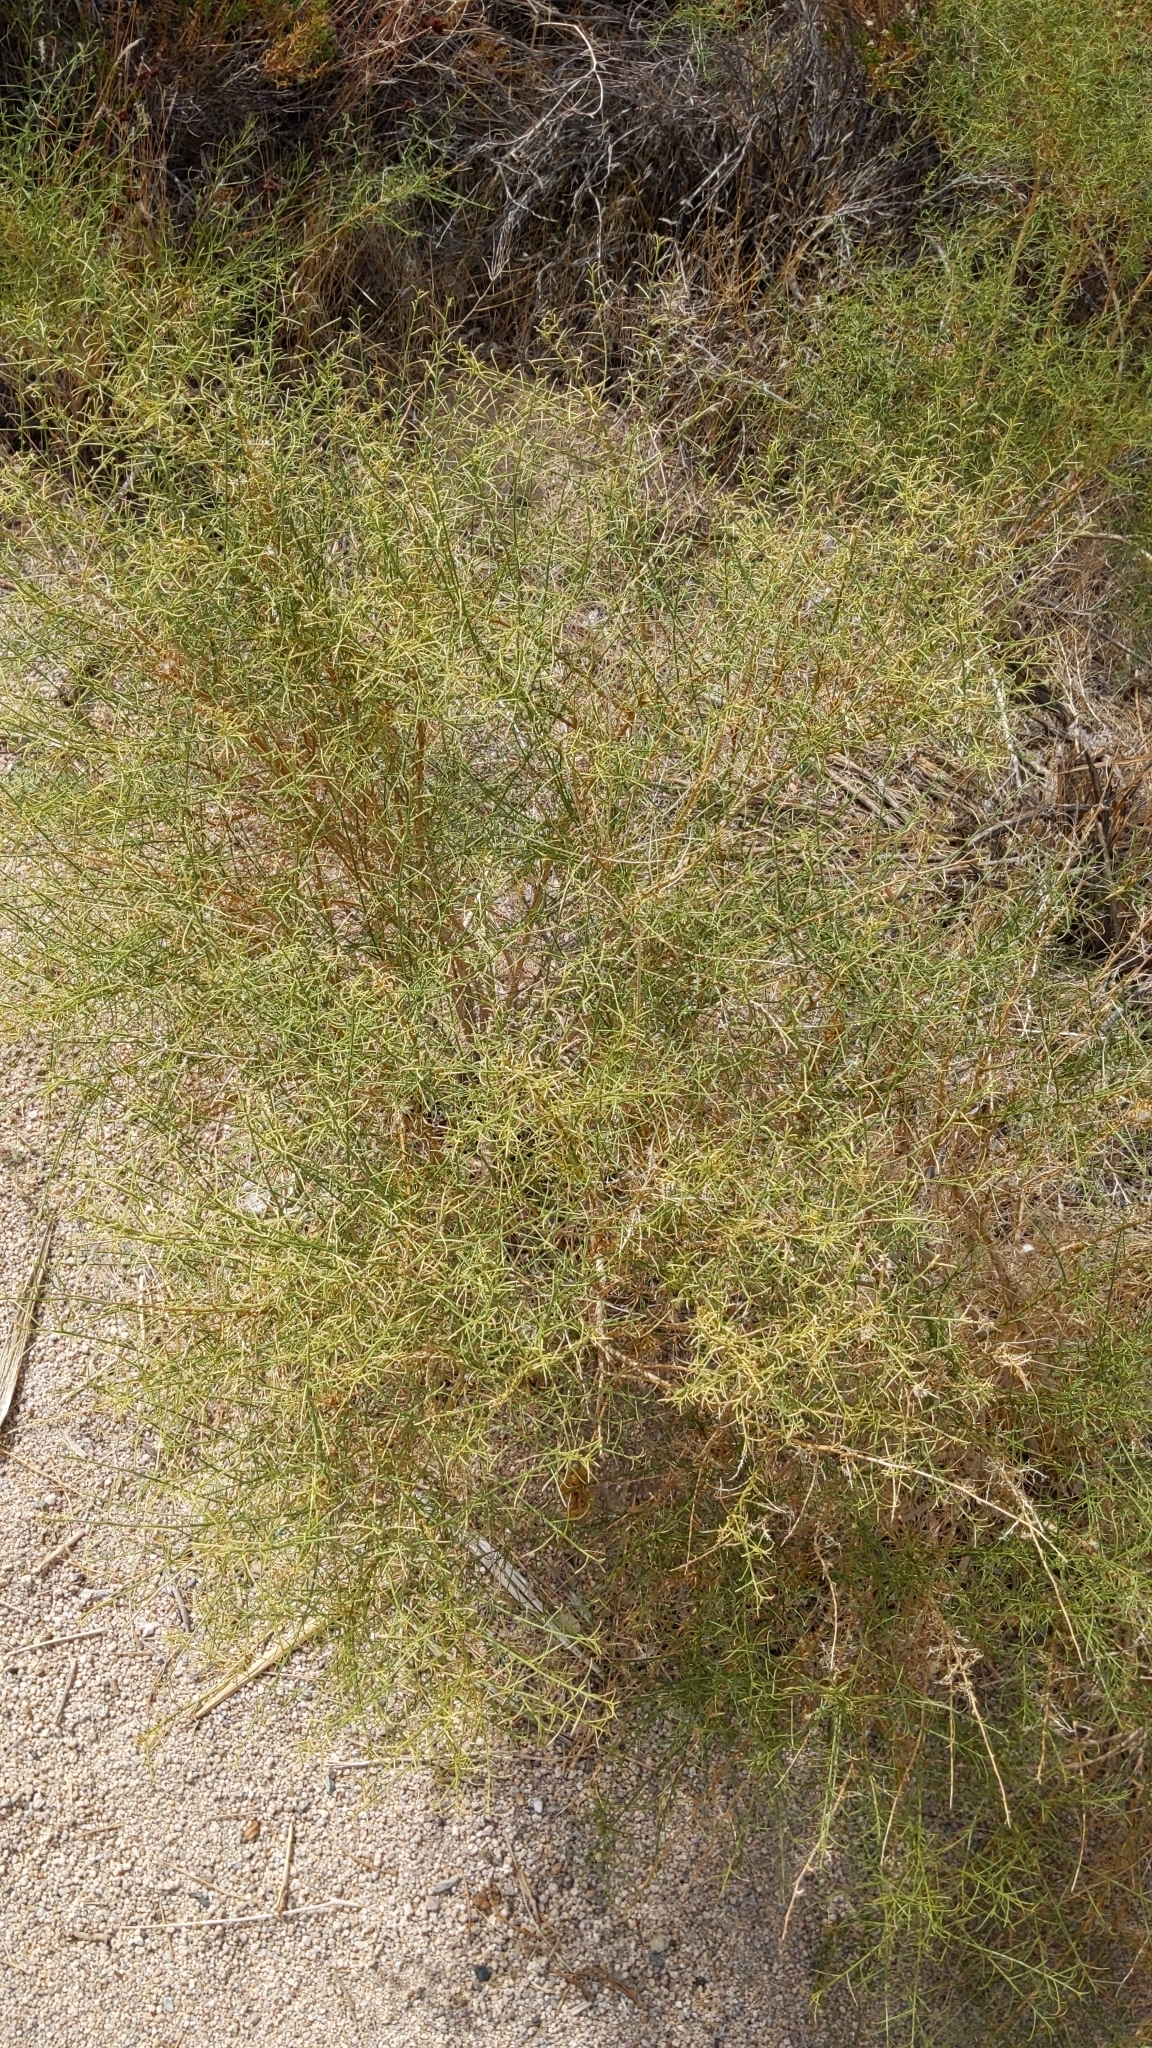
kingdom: Plantae
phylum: Tracheophyta
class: Magnoliopsida
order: Asterales
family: Asteraceae
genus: Ambrosia
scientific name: Ambrosia salsola
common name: Burrobrush
